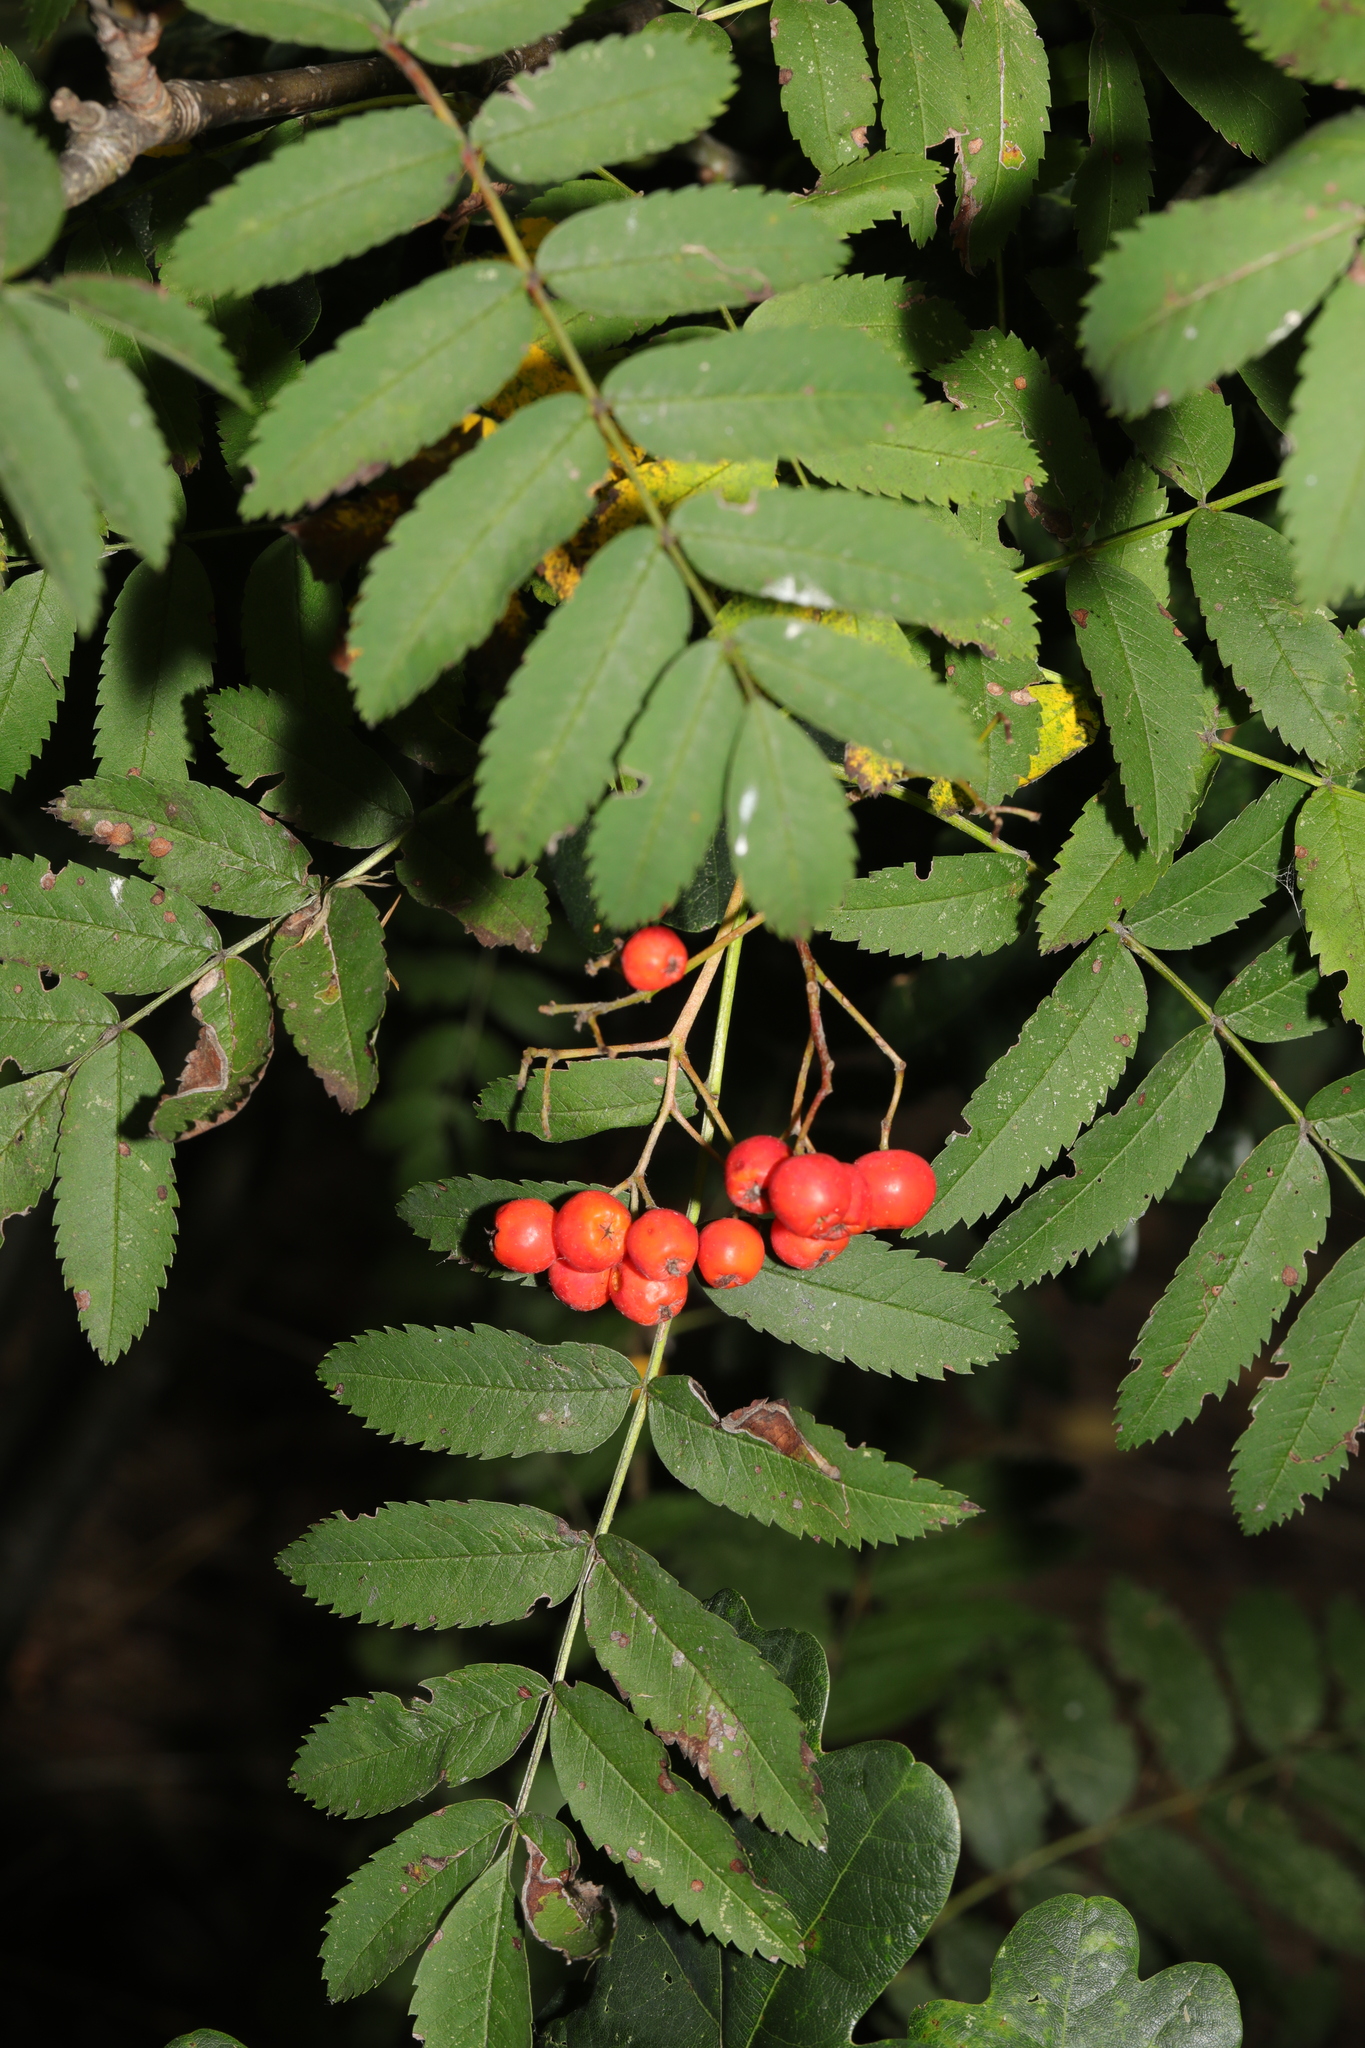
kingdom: Plantae
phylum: Tracheophyta
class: Magnoliopsida
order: Rosales
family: Rosaceae
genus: Sorbus
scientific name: Sorbus aucuparia
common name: Rowan
